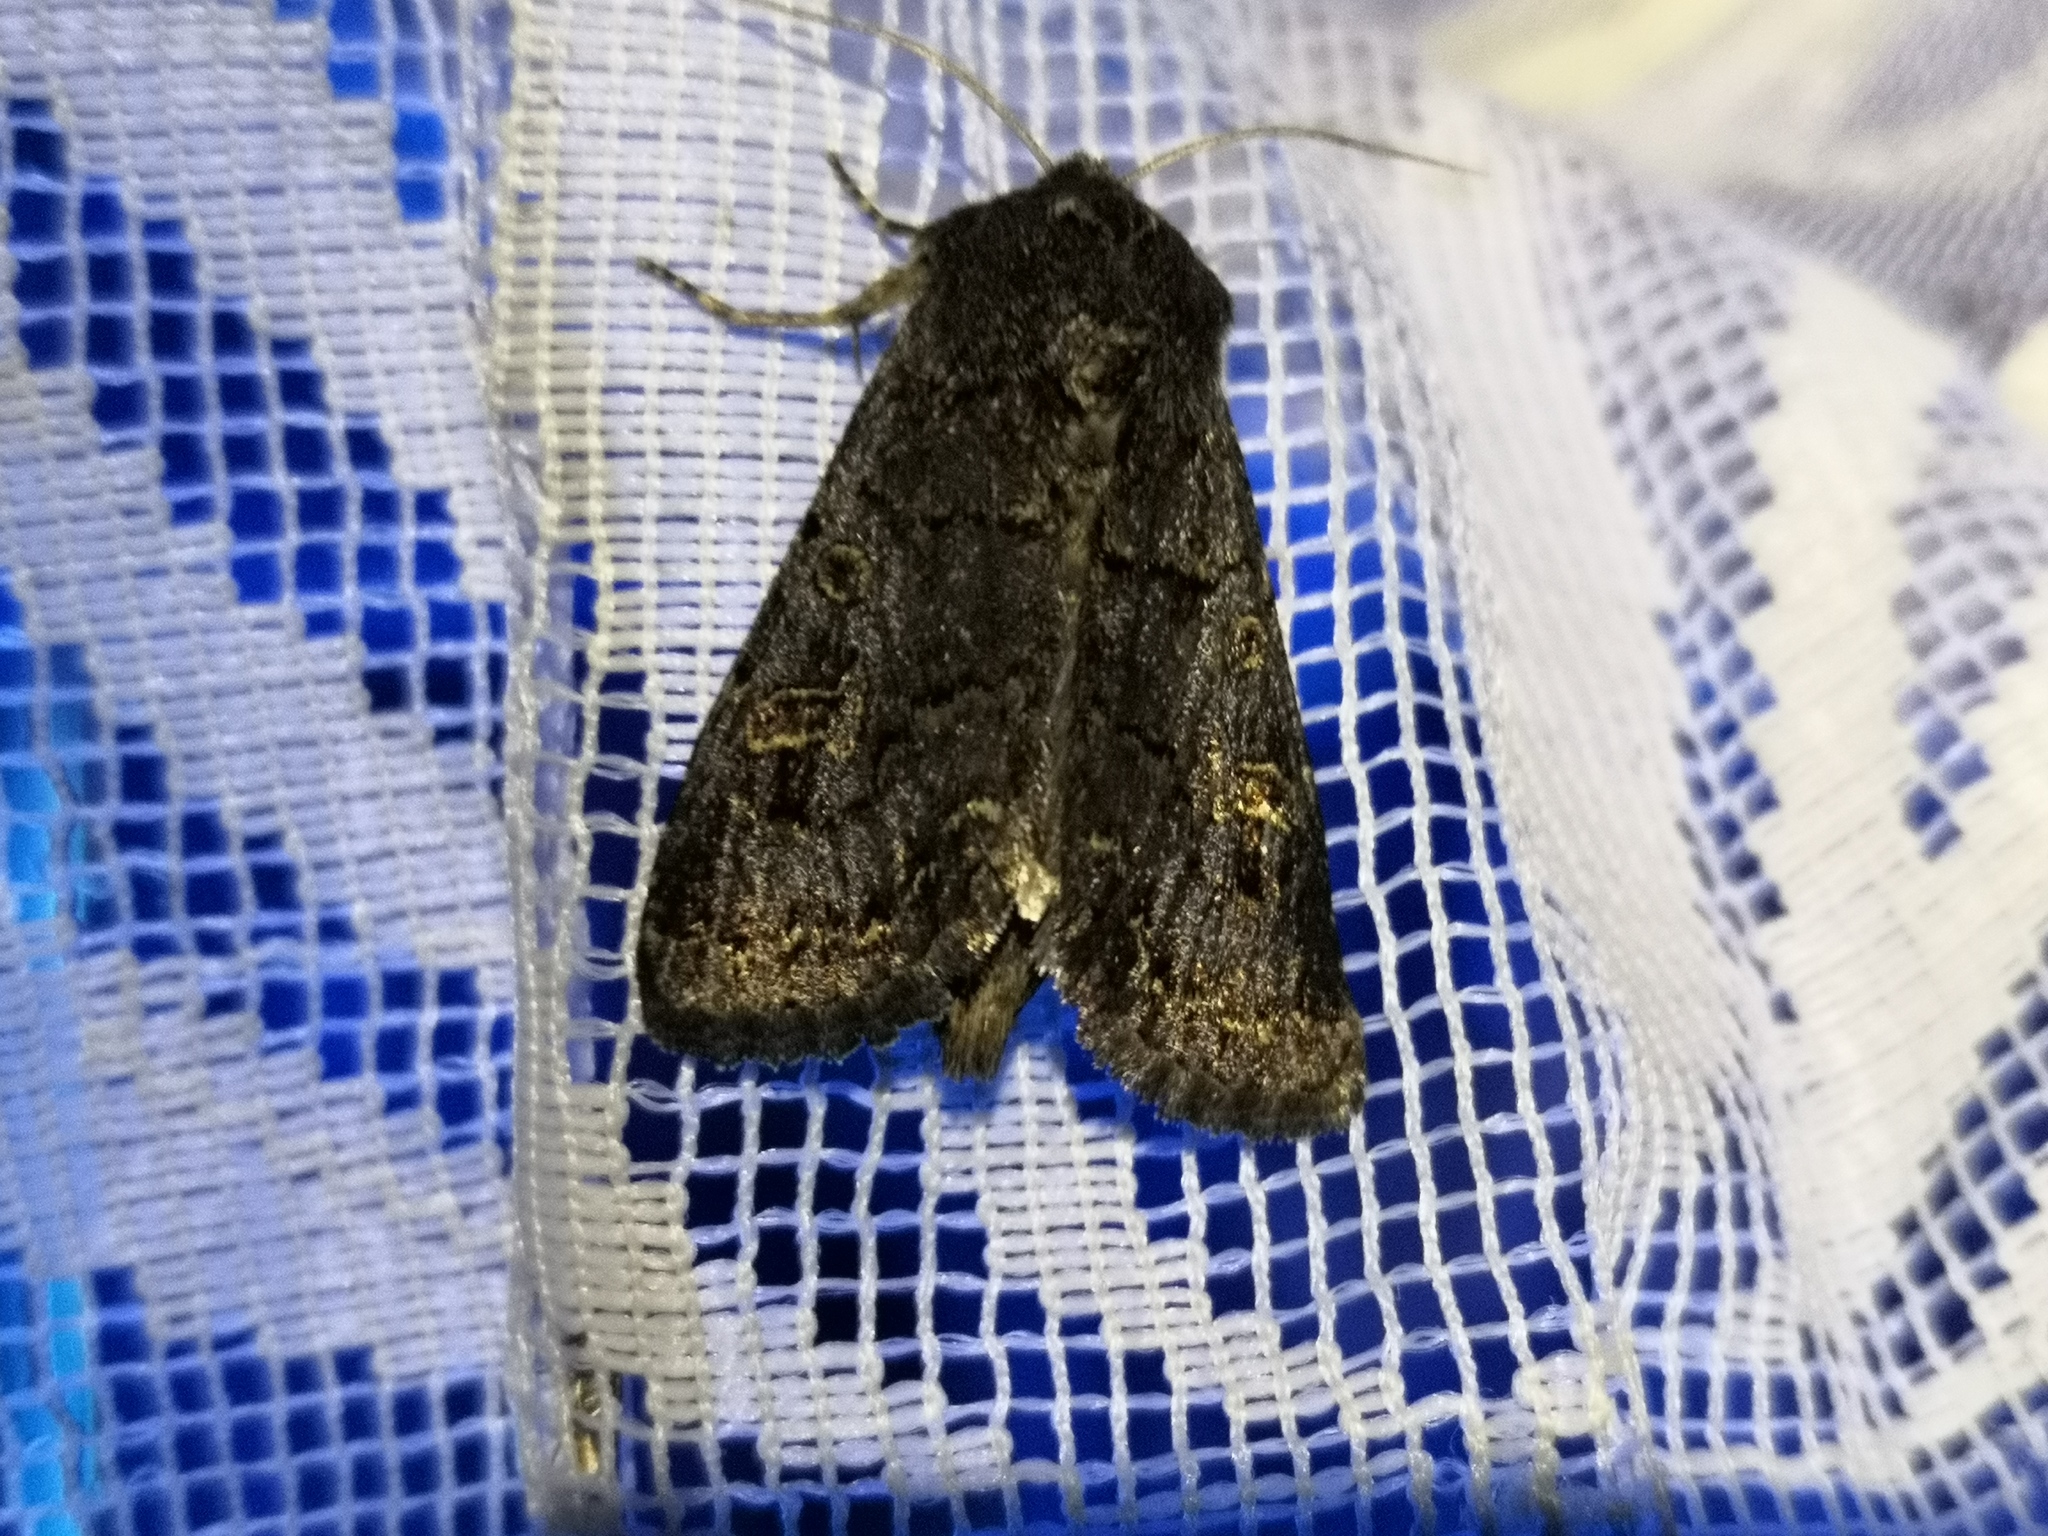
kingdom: Animalia
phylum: Arthropoda
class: Insecta
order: Lepidoptera
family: Noctuidae
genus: Tholera
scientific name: Tholera cespitis
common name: Hedge rustic
